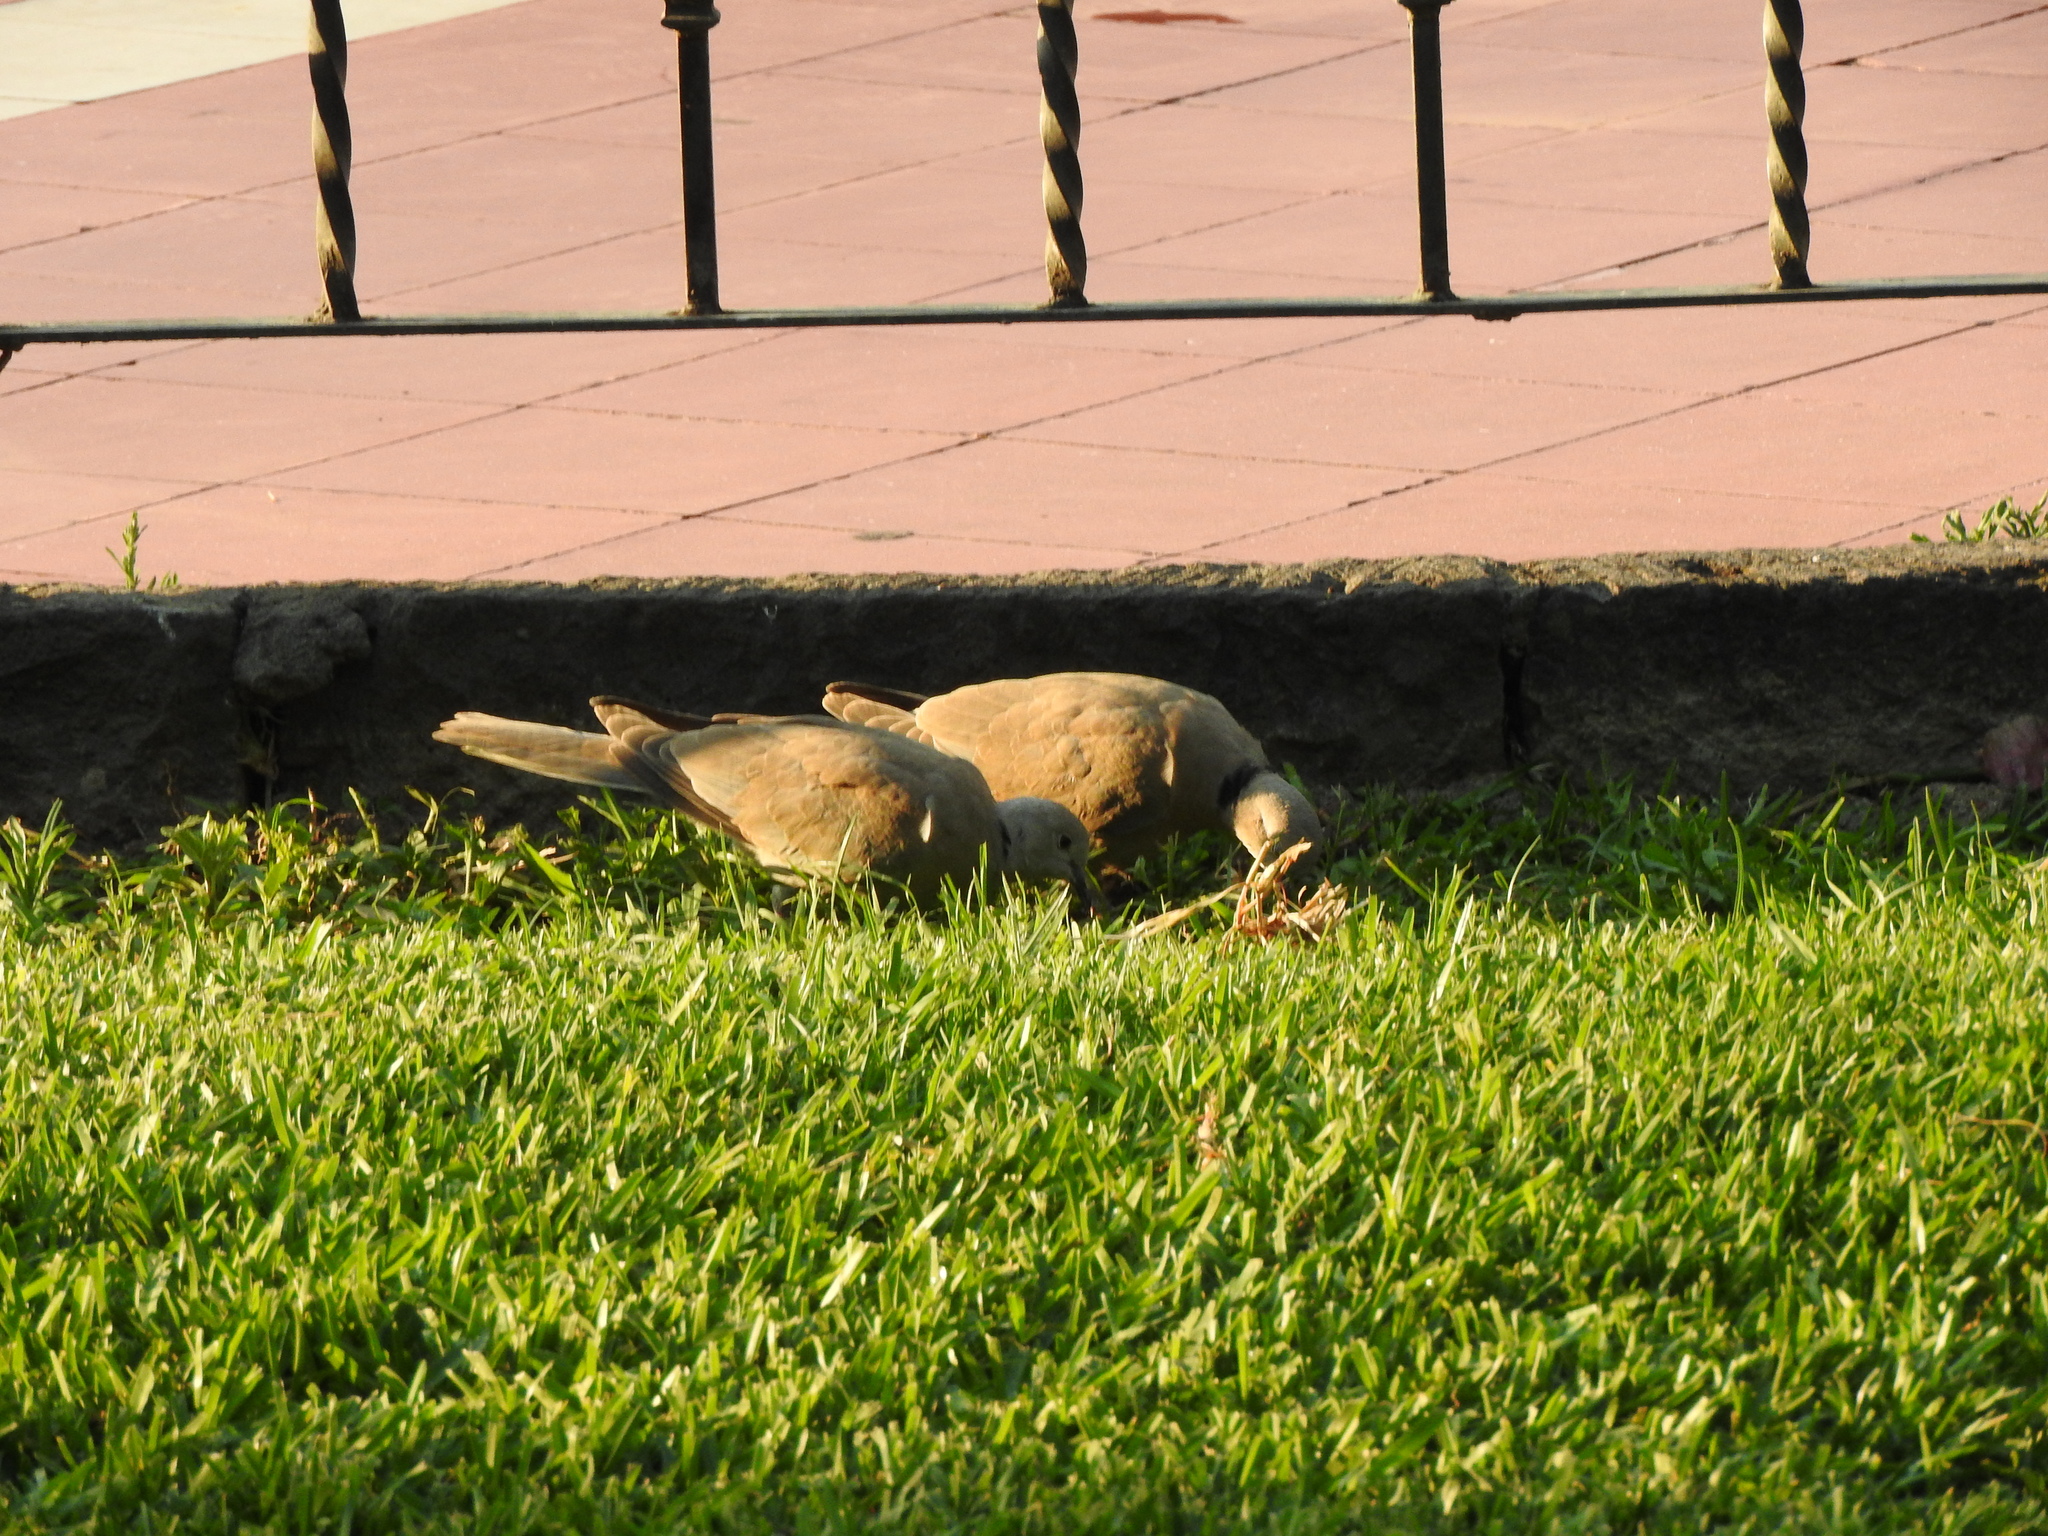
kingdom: Animalia
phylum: Chordata
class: Aves
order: Columbiformes
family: Columbidae
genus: Streptopelia
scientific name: Streptopelia decaocto
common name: Eurasian collared dove
